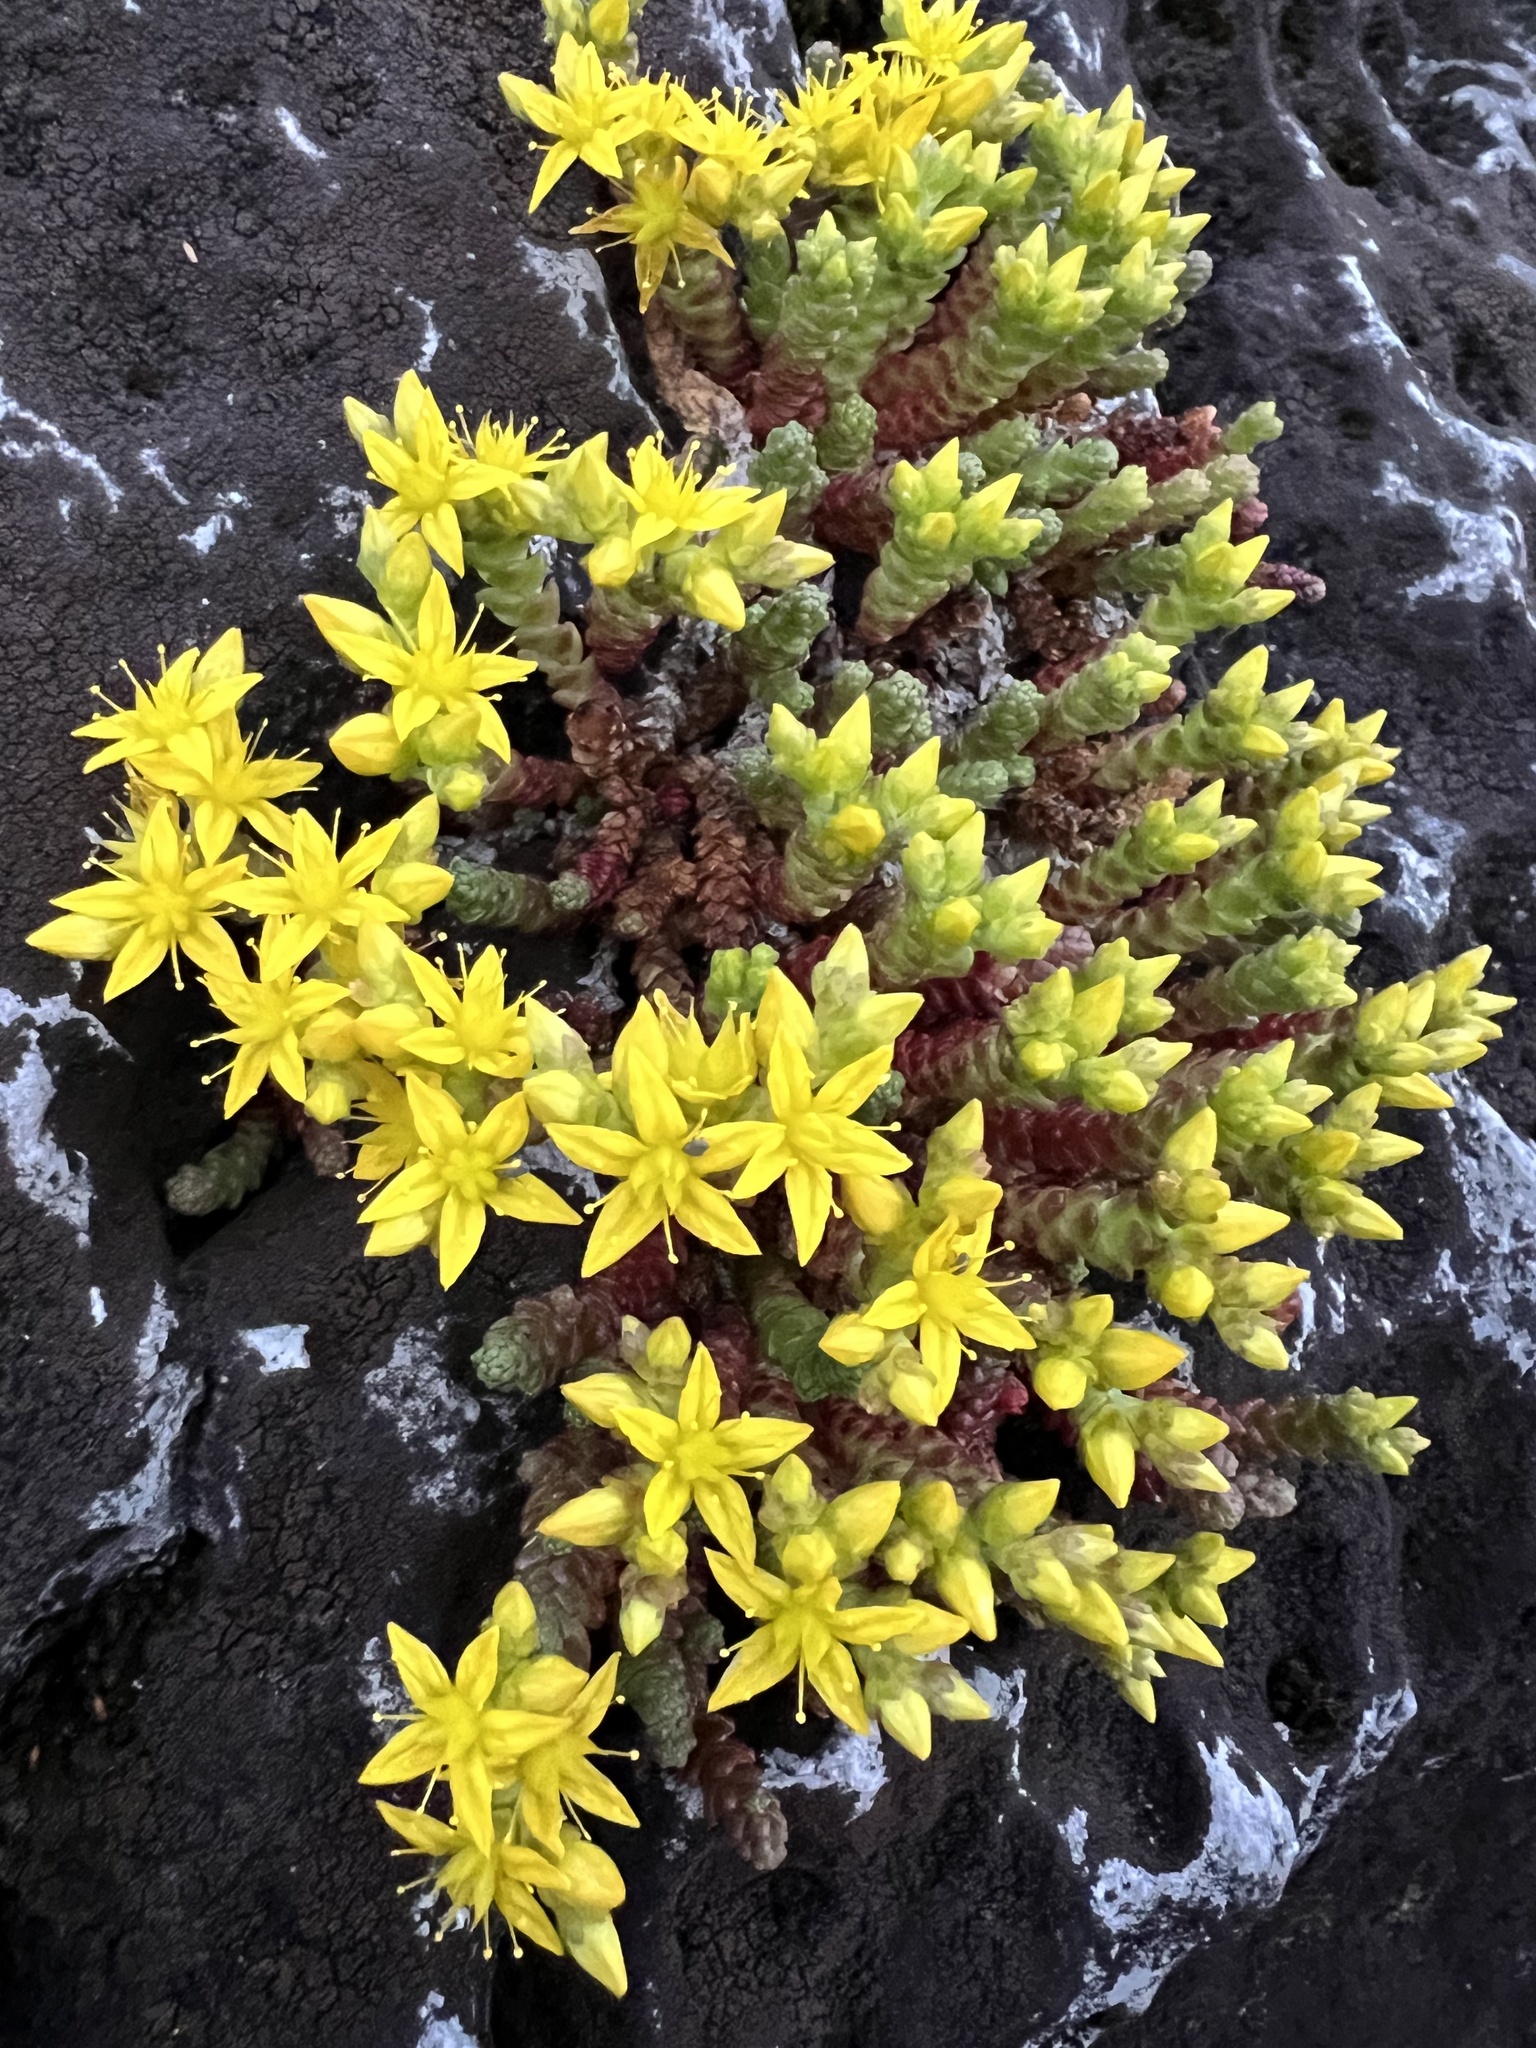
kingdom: Plantae
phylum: Tracheophyta
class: Magnoliopsida
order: Saxifragales
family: Crassulaceae
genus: Sedum
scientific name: Sedum acre
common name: Biting stonecrop
